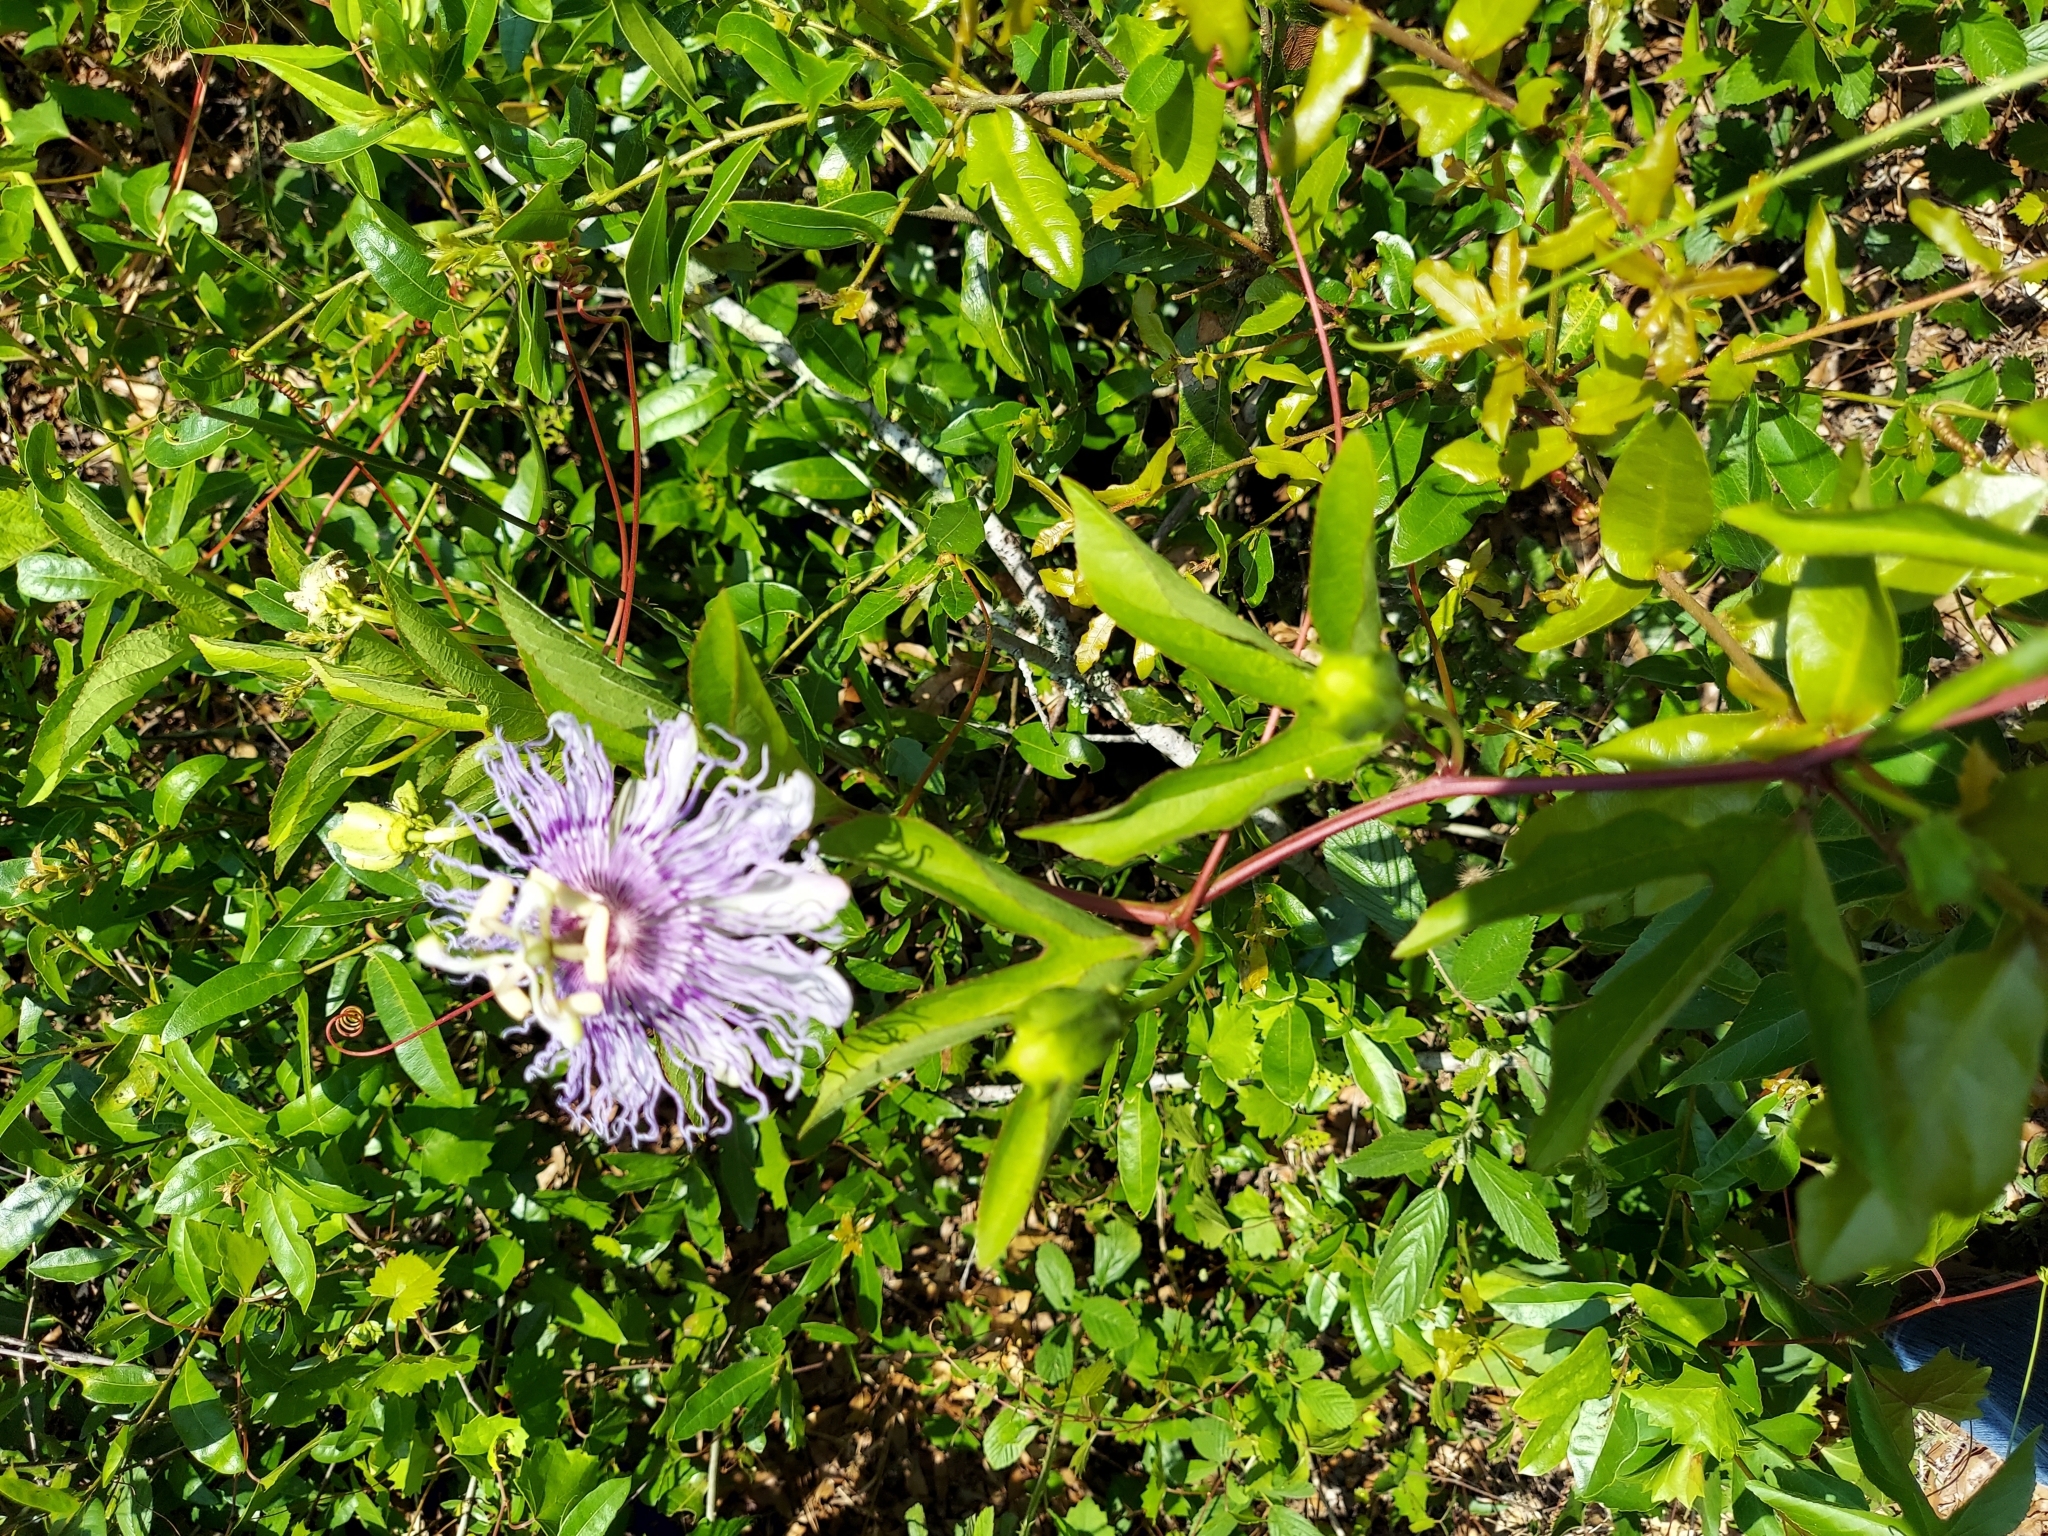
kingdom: Plantae
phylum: Tracheophyta
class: Magnoliopsida
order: Malpighiales
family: Passifloraceae
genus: Passiflora
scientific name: Passiflora incarnata
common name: Apricot-vine
